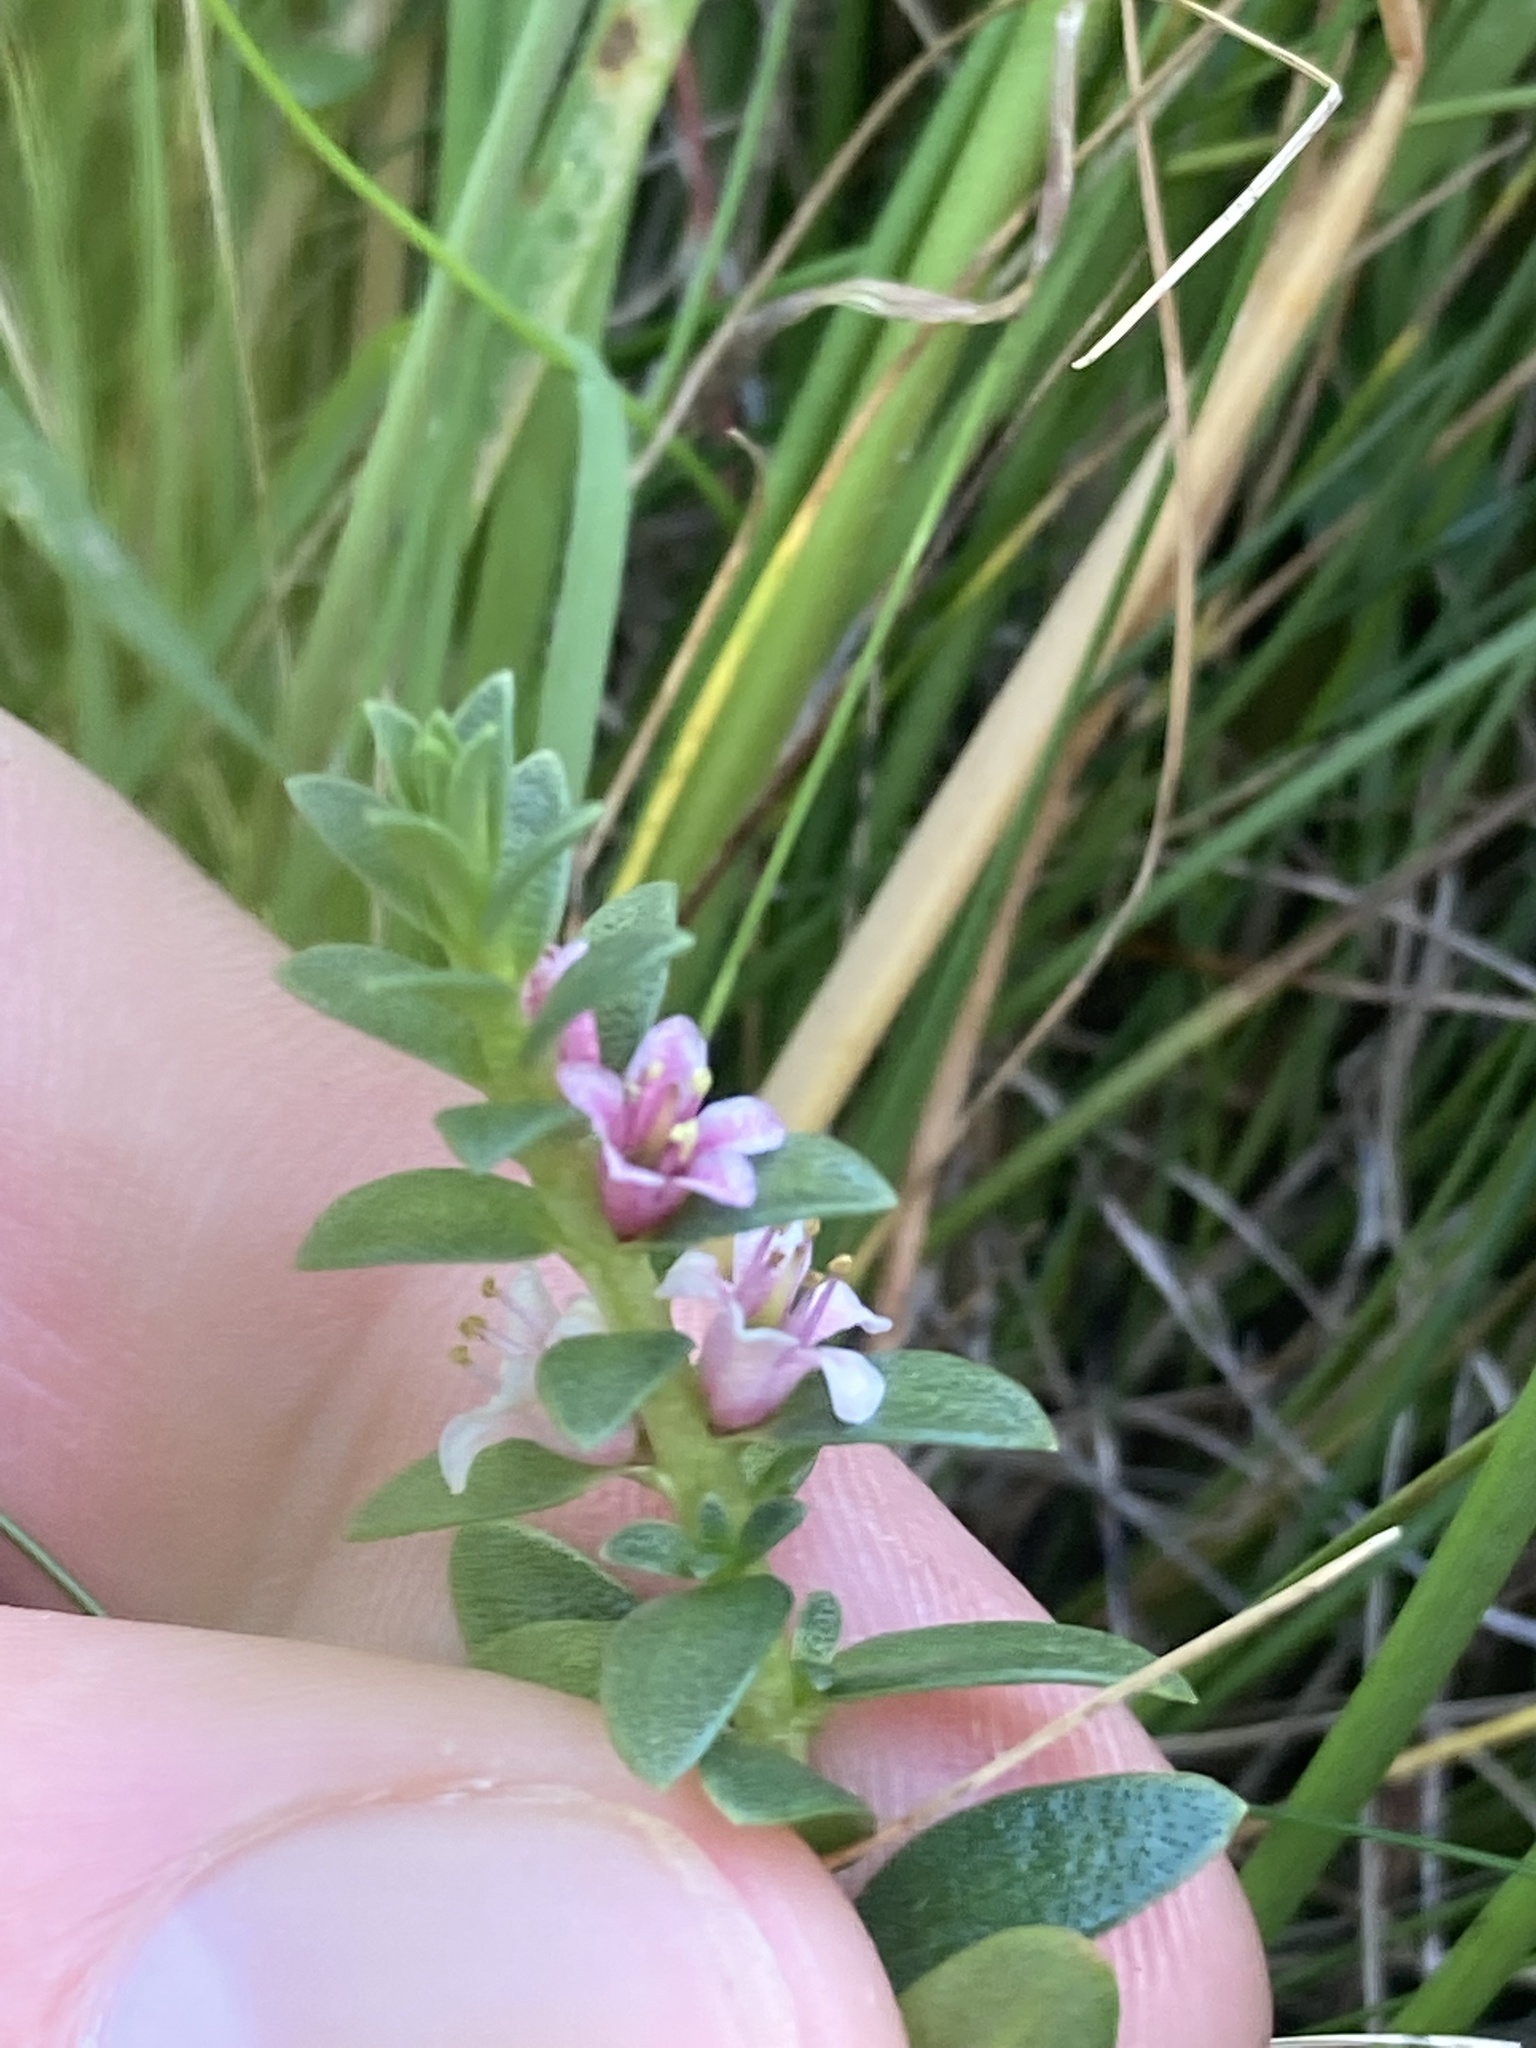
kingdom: Plantae
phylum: Tracheophyta
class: Magnoliopsida
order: Ericales
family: Primulaceae
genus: Lysimachia
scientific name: Lysimachia maritima
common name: Sea milkwort
